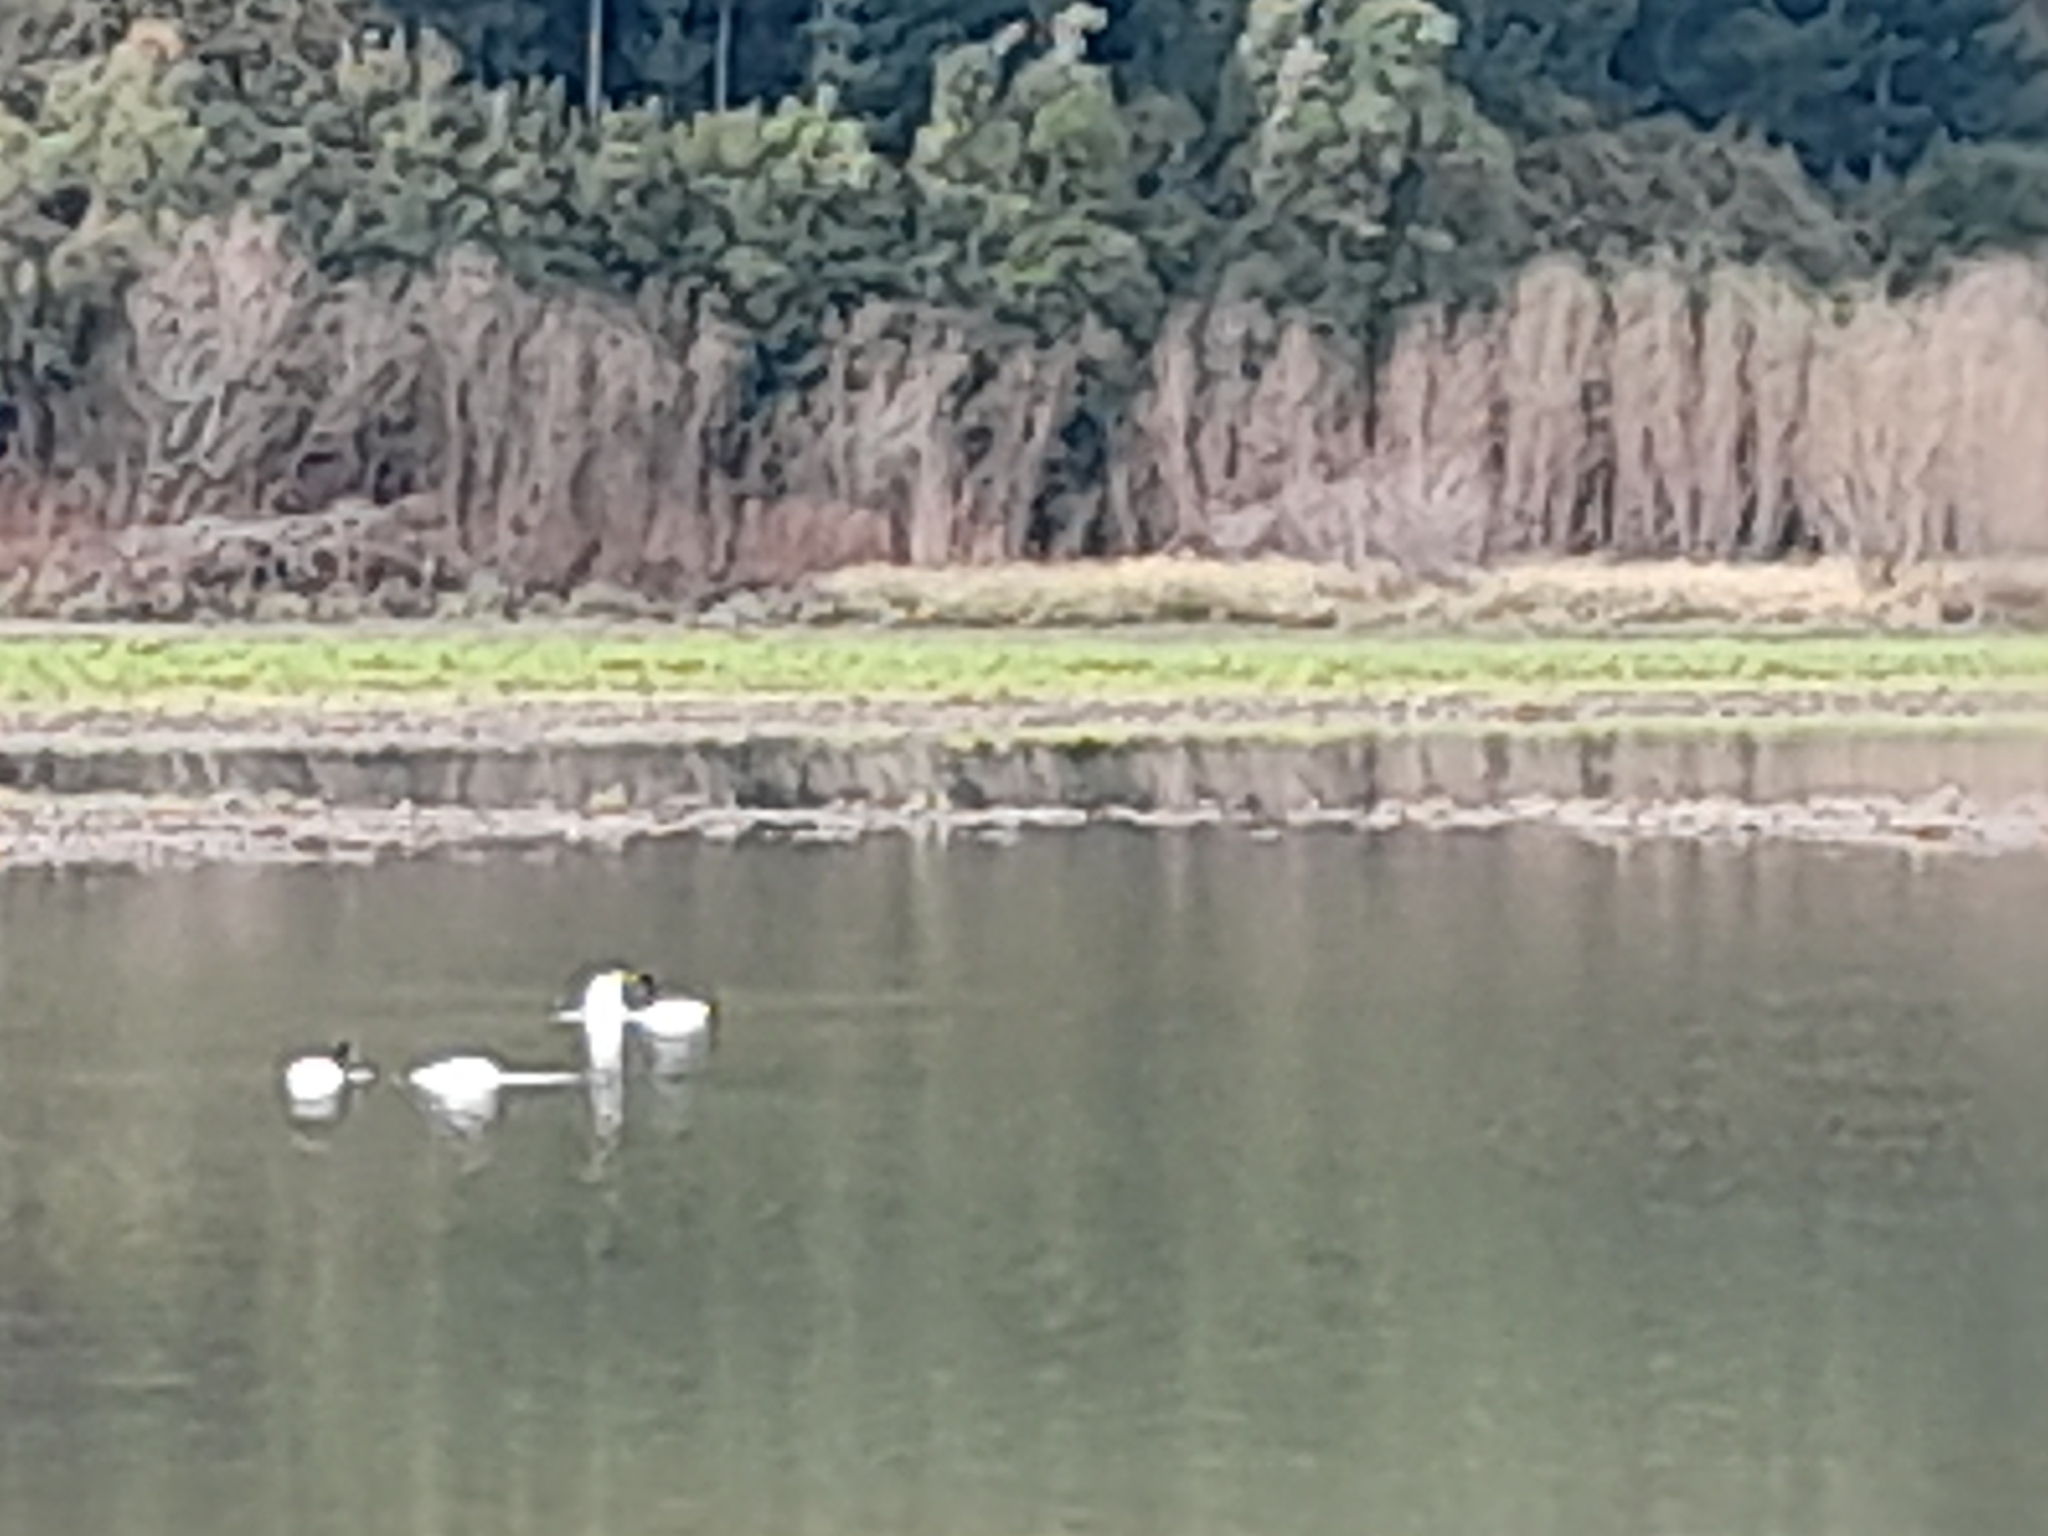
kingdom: Animalia
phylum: Chordata
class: Aves
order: Anseriformes
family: Anatidae
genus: Cygnus
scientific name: Cygnus melancoryphus
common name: Black-necked swan
